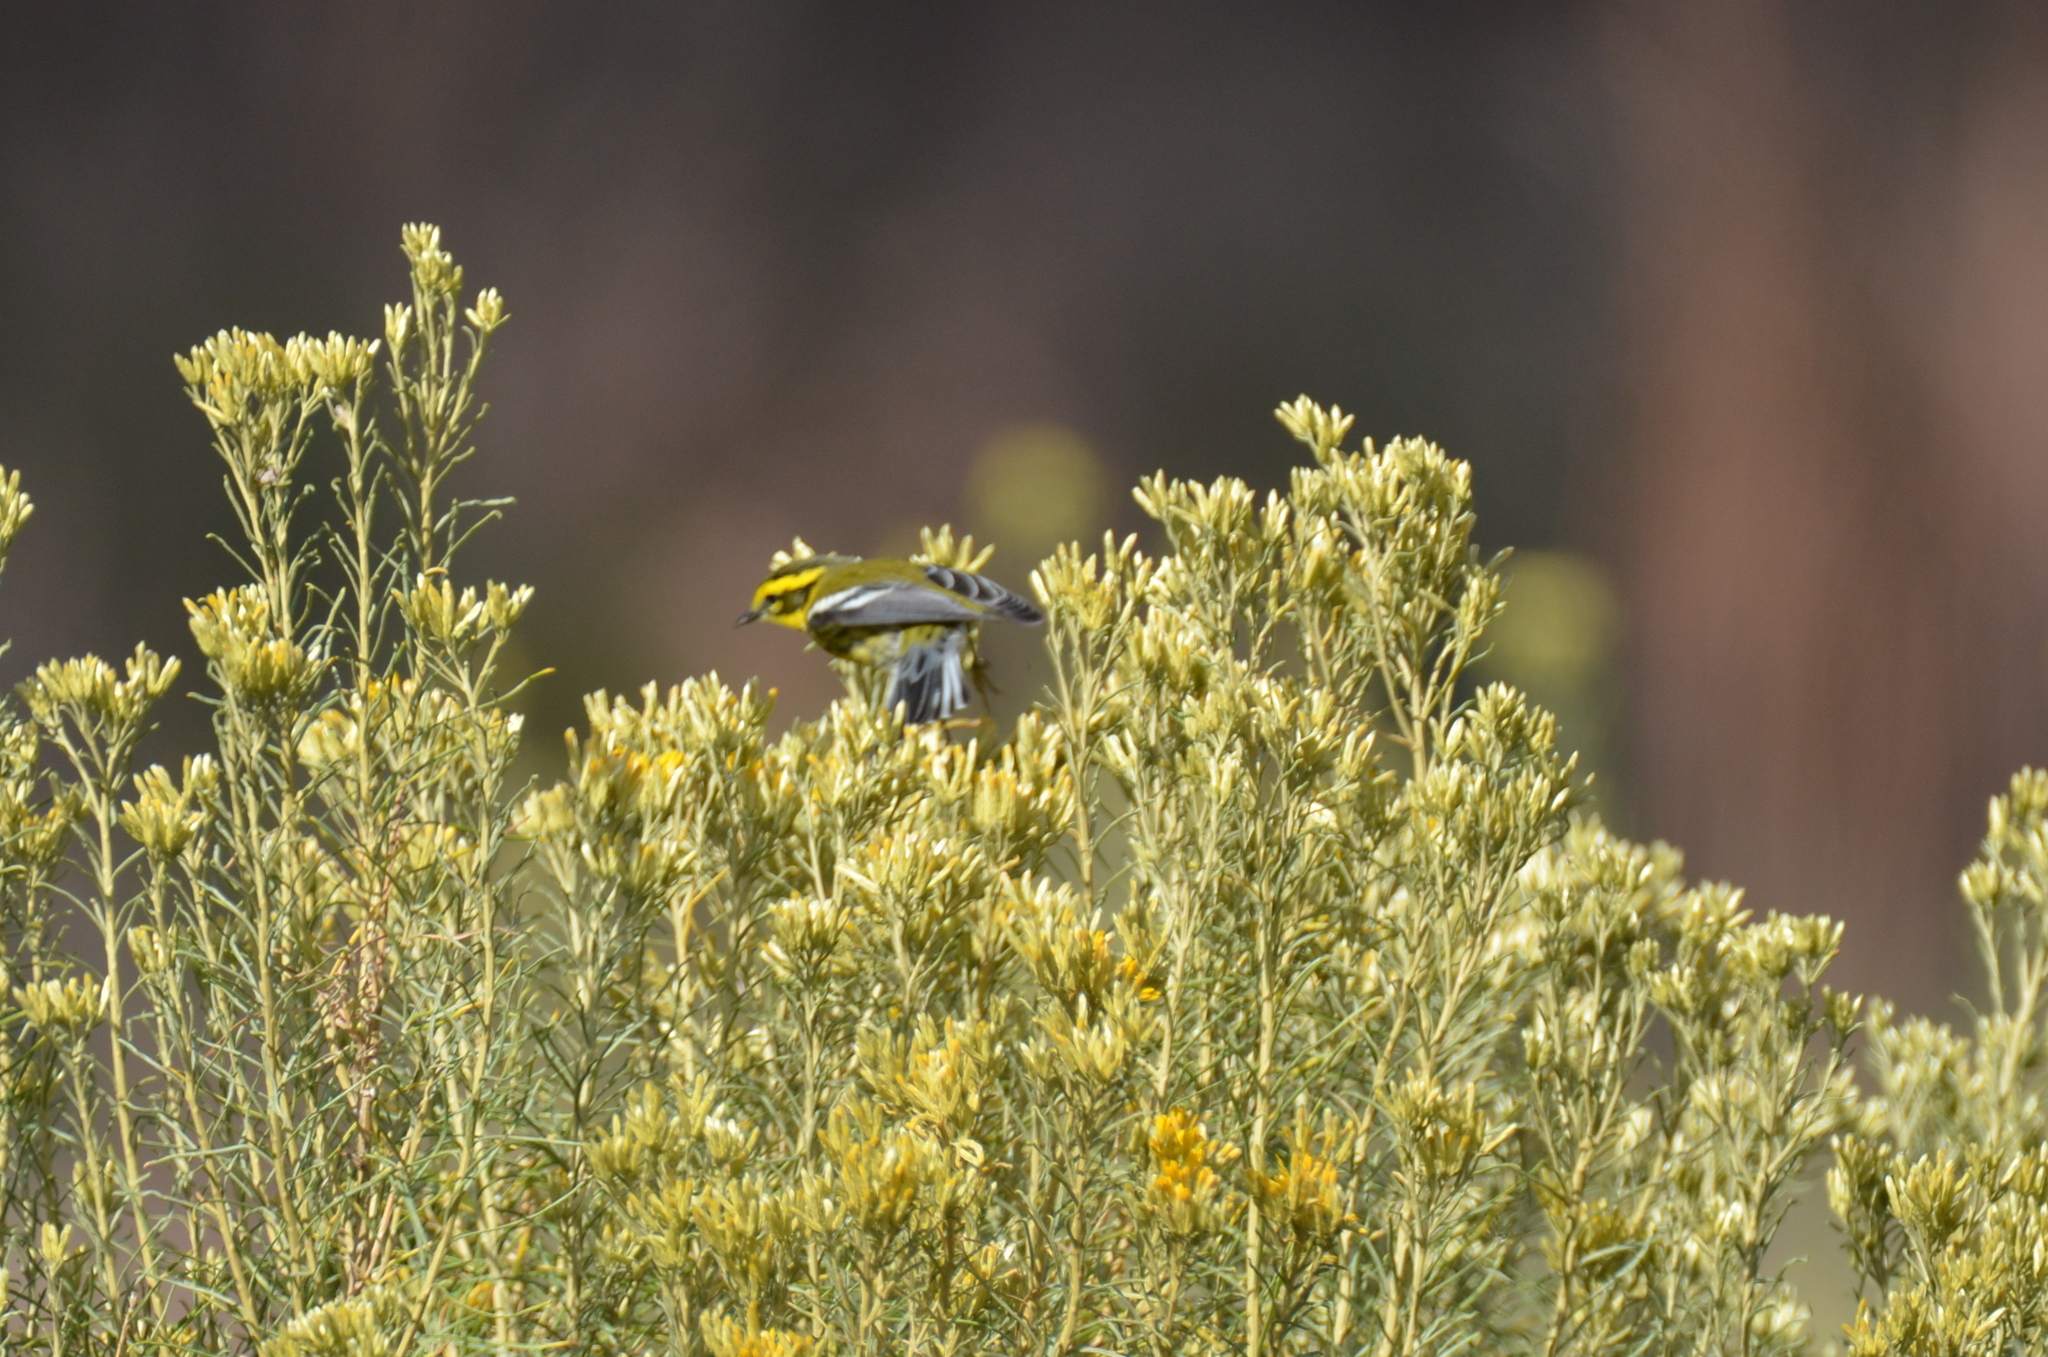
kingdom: Animalia
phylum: Chordata
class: Aves
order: Passeriformes
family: Parulidae
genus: Setophaga
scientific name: Setophaga townsendi
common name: Townsend's warbler
